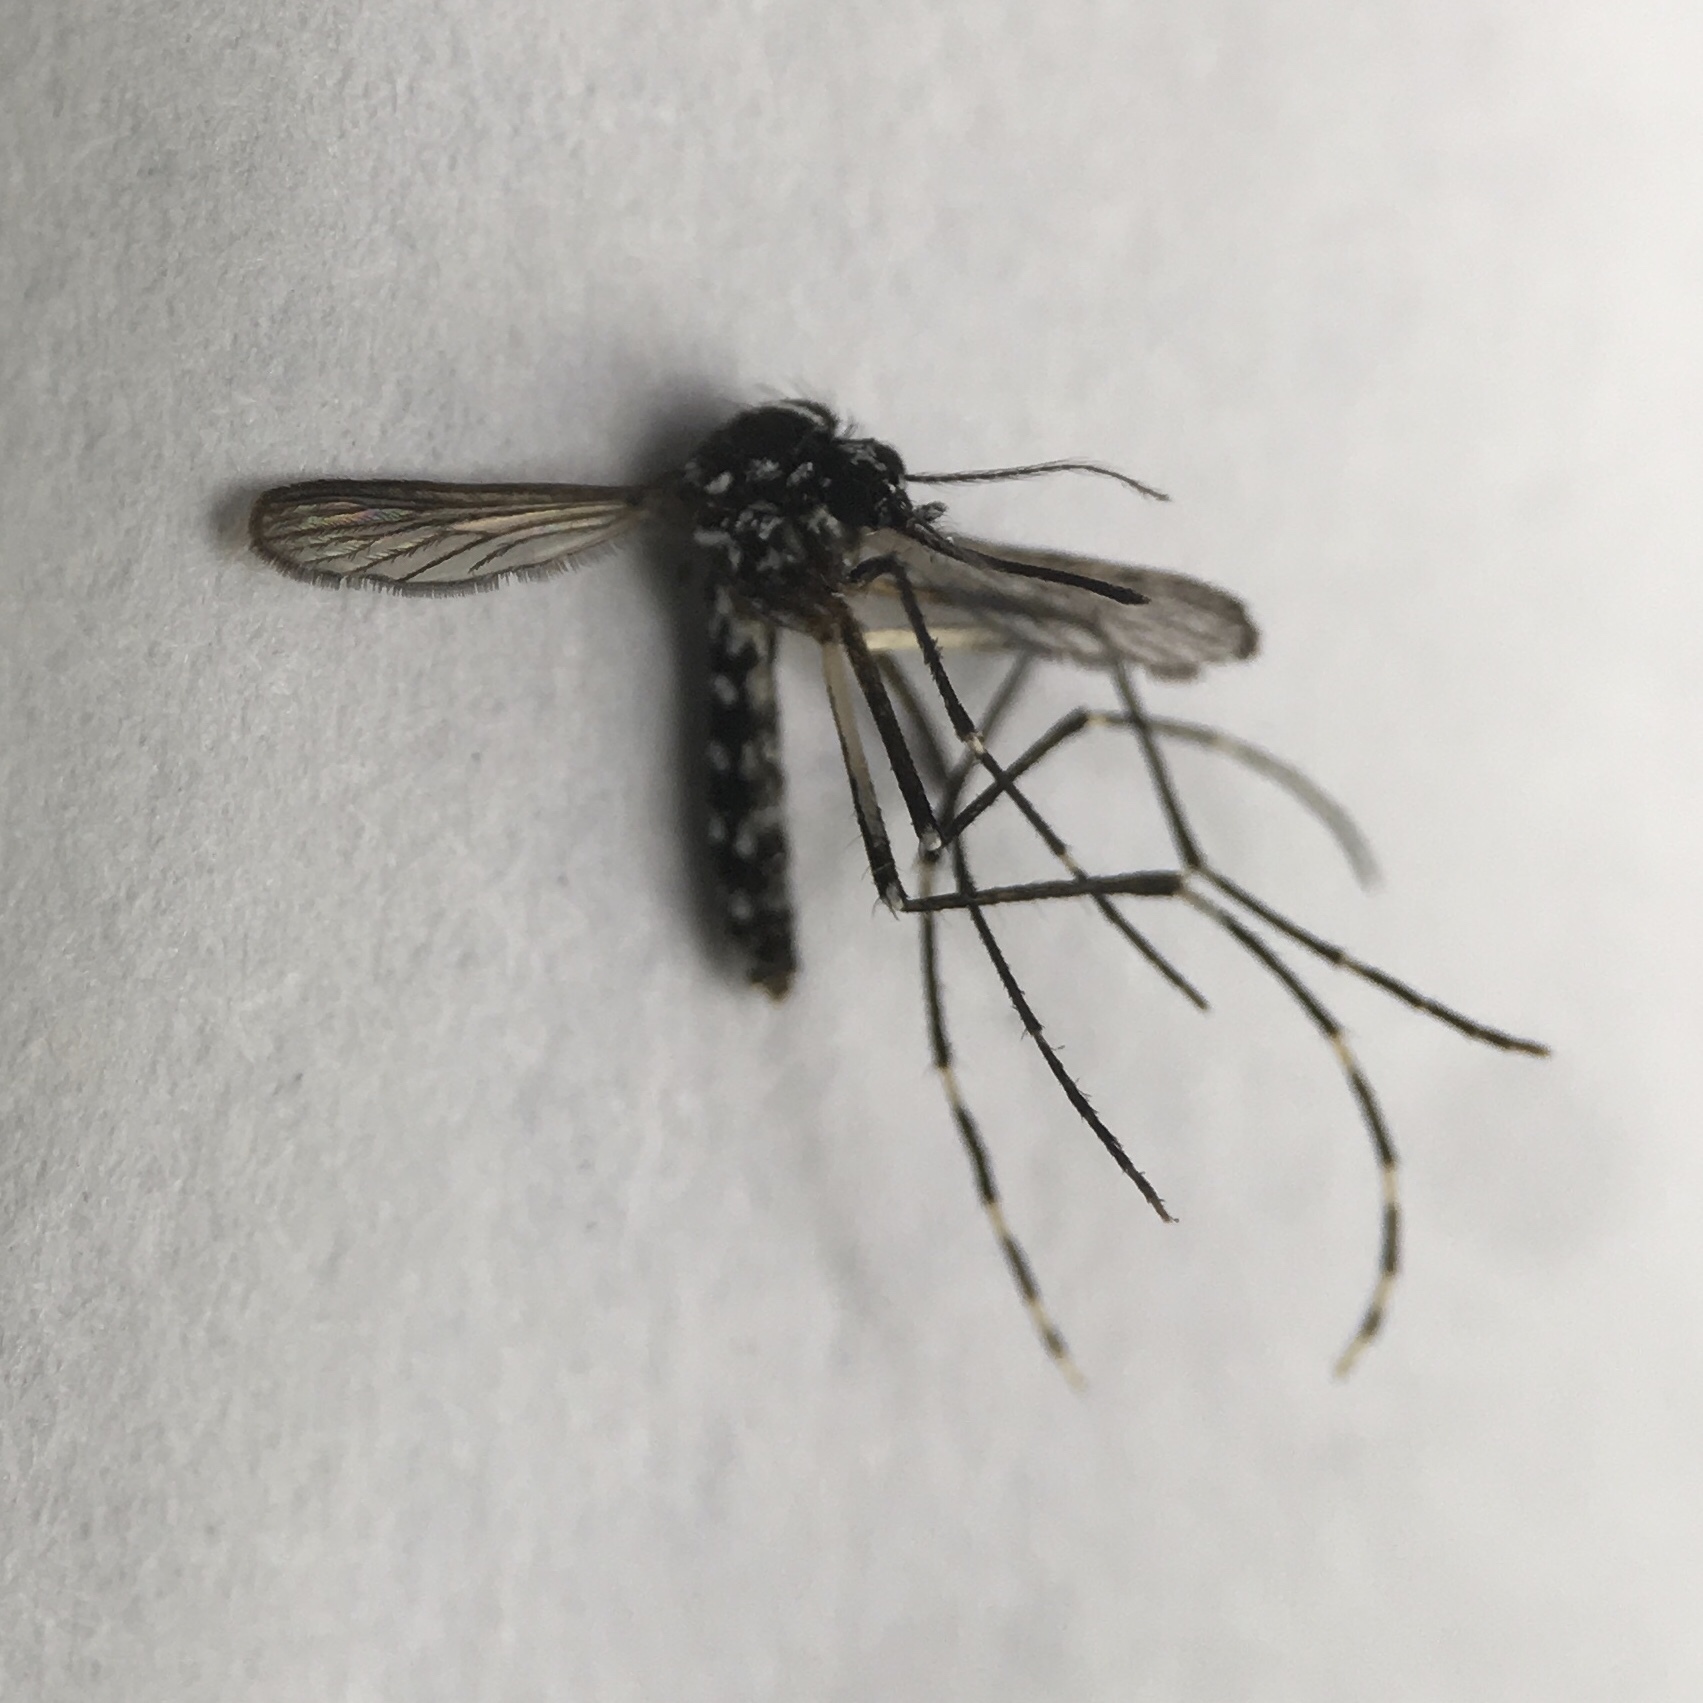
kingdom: Animalia
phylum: Arthropoda
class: Insecta
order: Diptera
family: Culicidae
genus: Aedes
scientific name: Aedes albopictus
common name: Tiger mosquito
